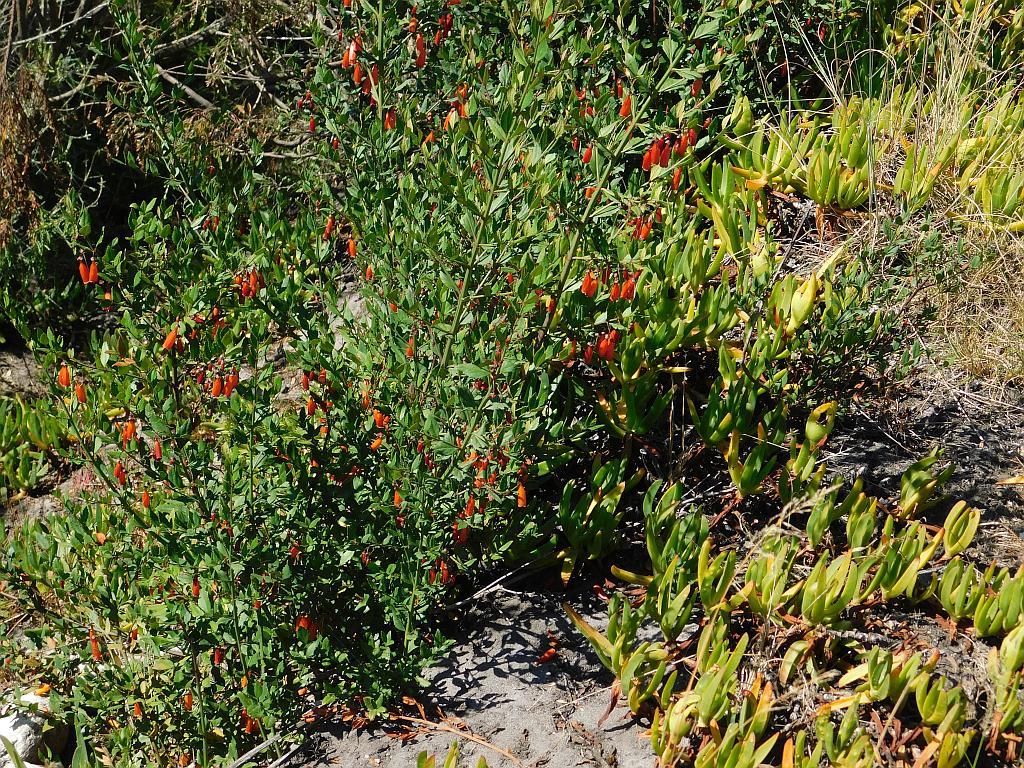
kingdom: Plantae
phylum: Tracheophyta
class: Magnoliopsida
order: Lamiales
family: Stilbaceae
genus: Halleria
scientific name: Halleria elliptica
